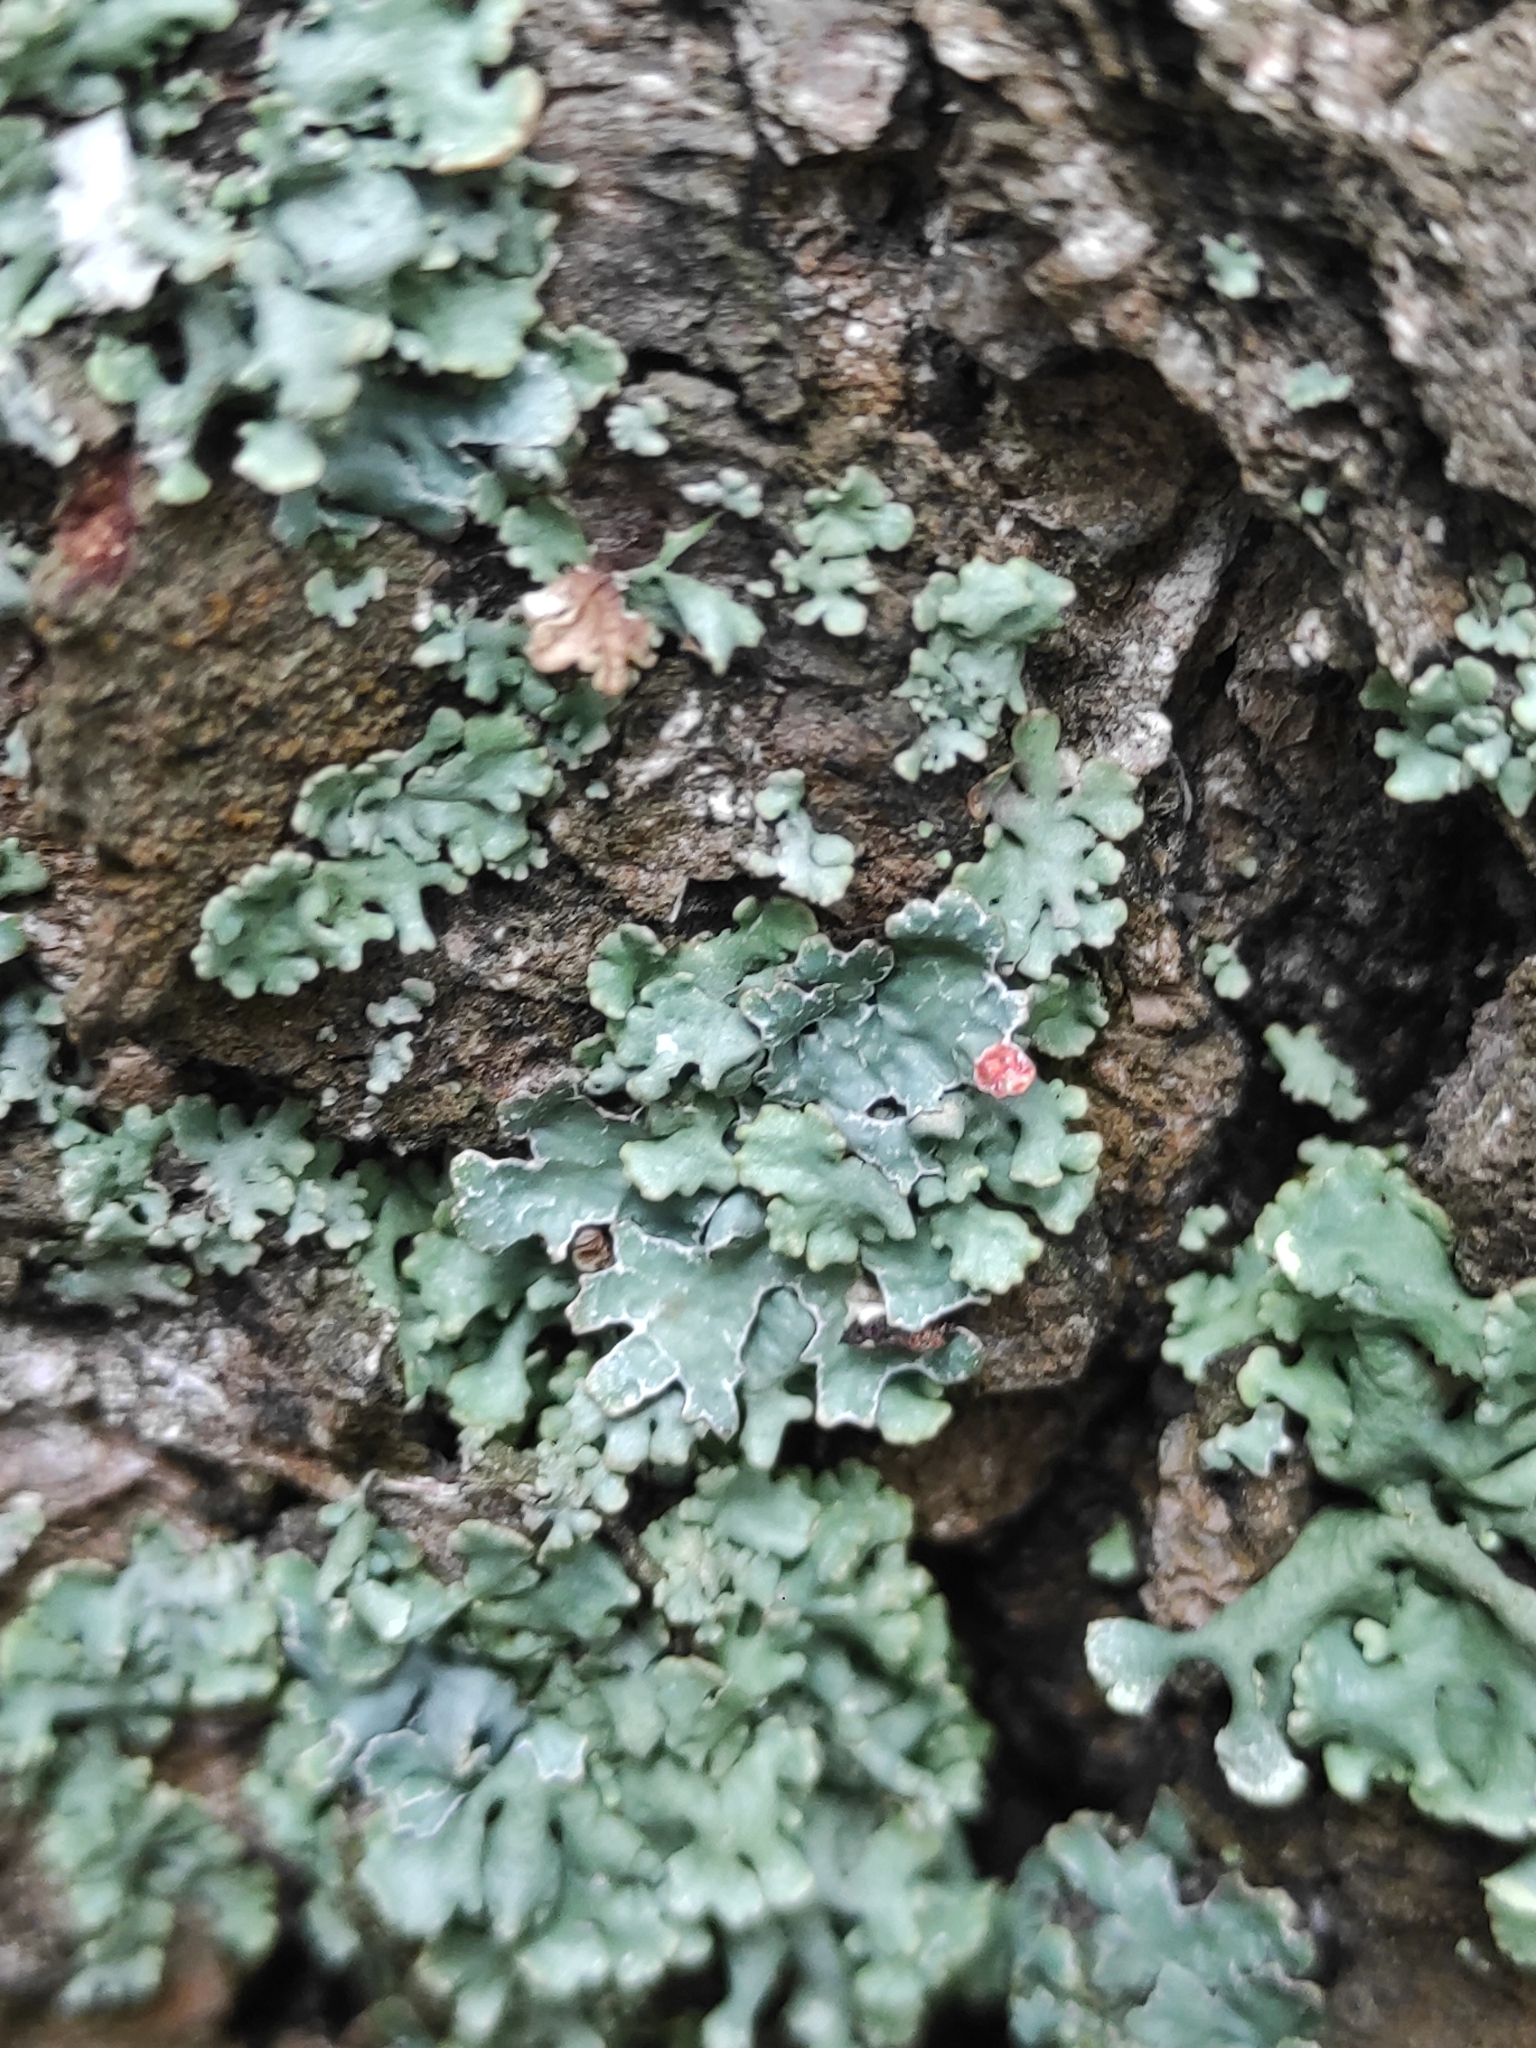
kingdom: Fungi
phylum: Ascomycota
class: Lecanoromycetes
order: Lecanorales
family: Parmeliaceae
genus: Hypogymnia
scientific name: Hypogymnia physodes
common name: Dark crottle
